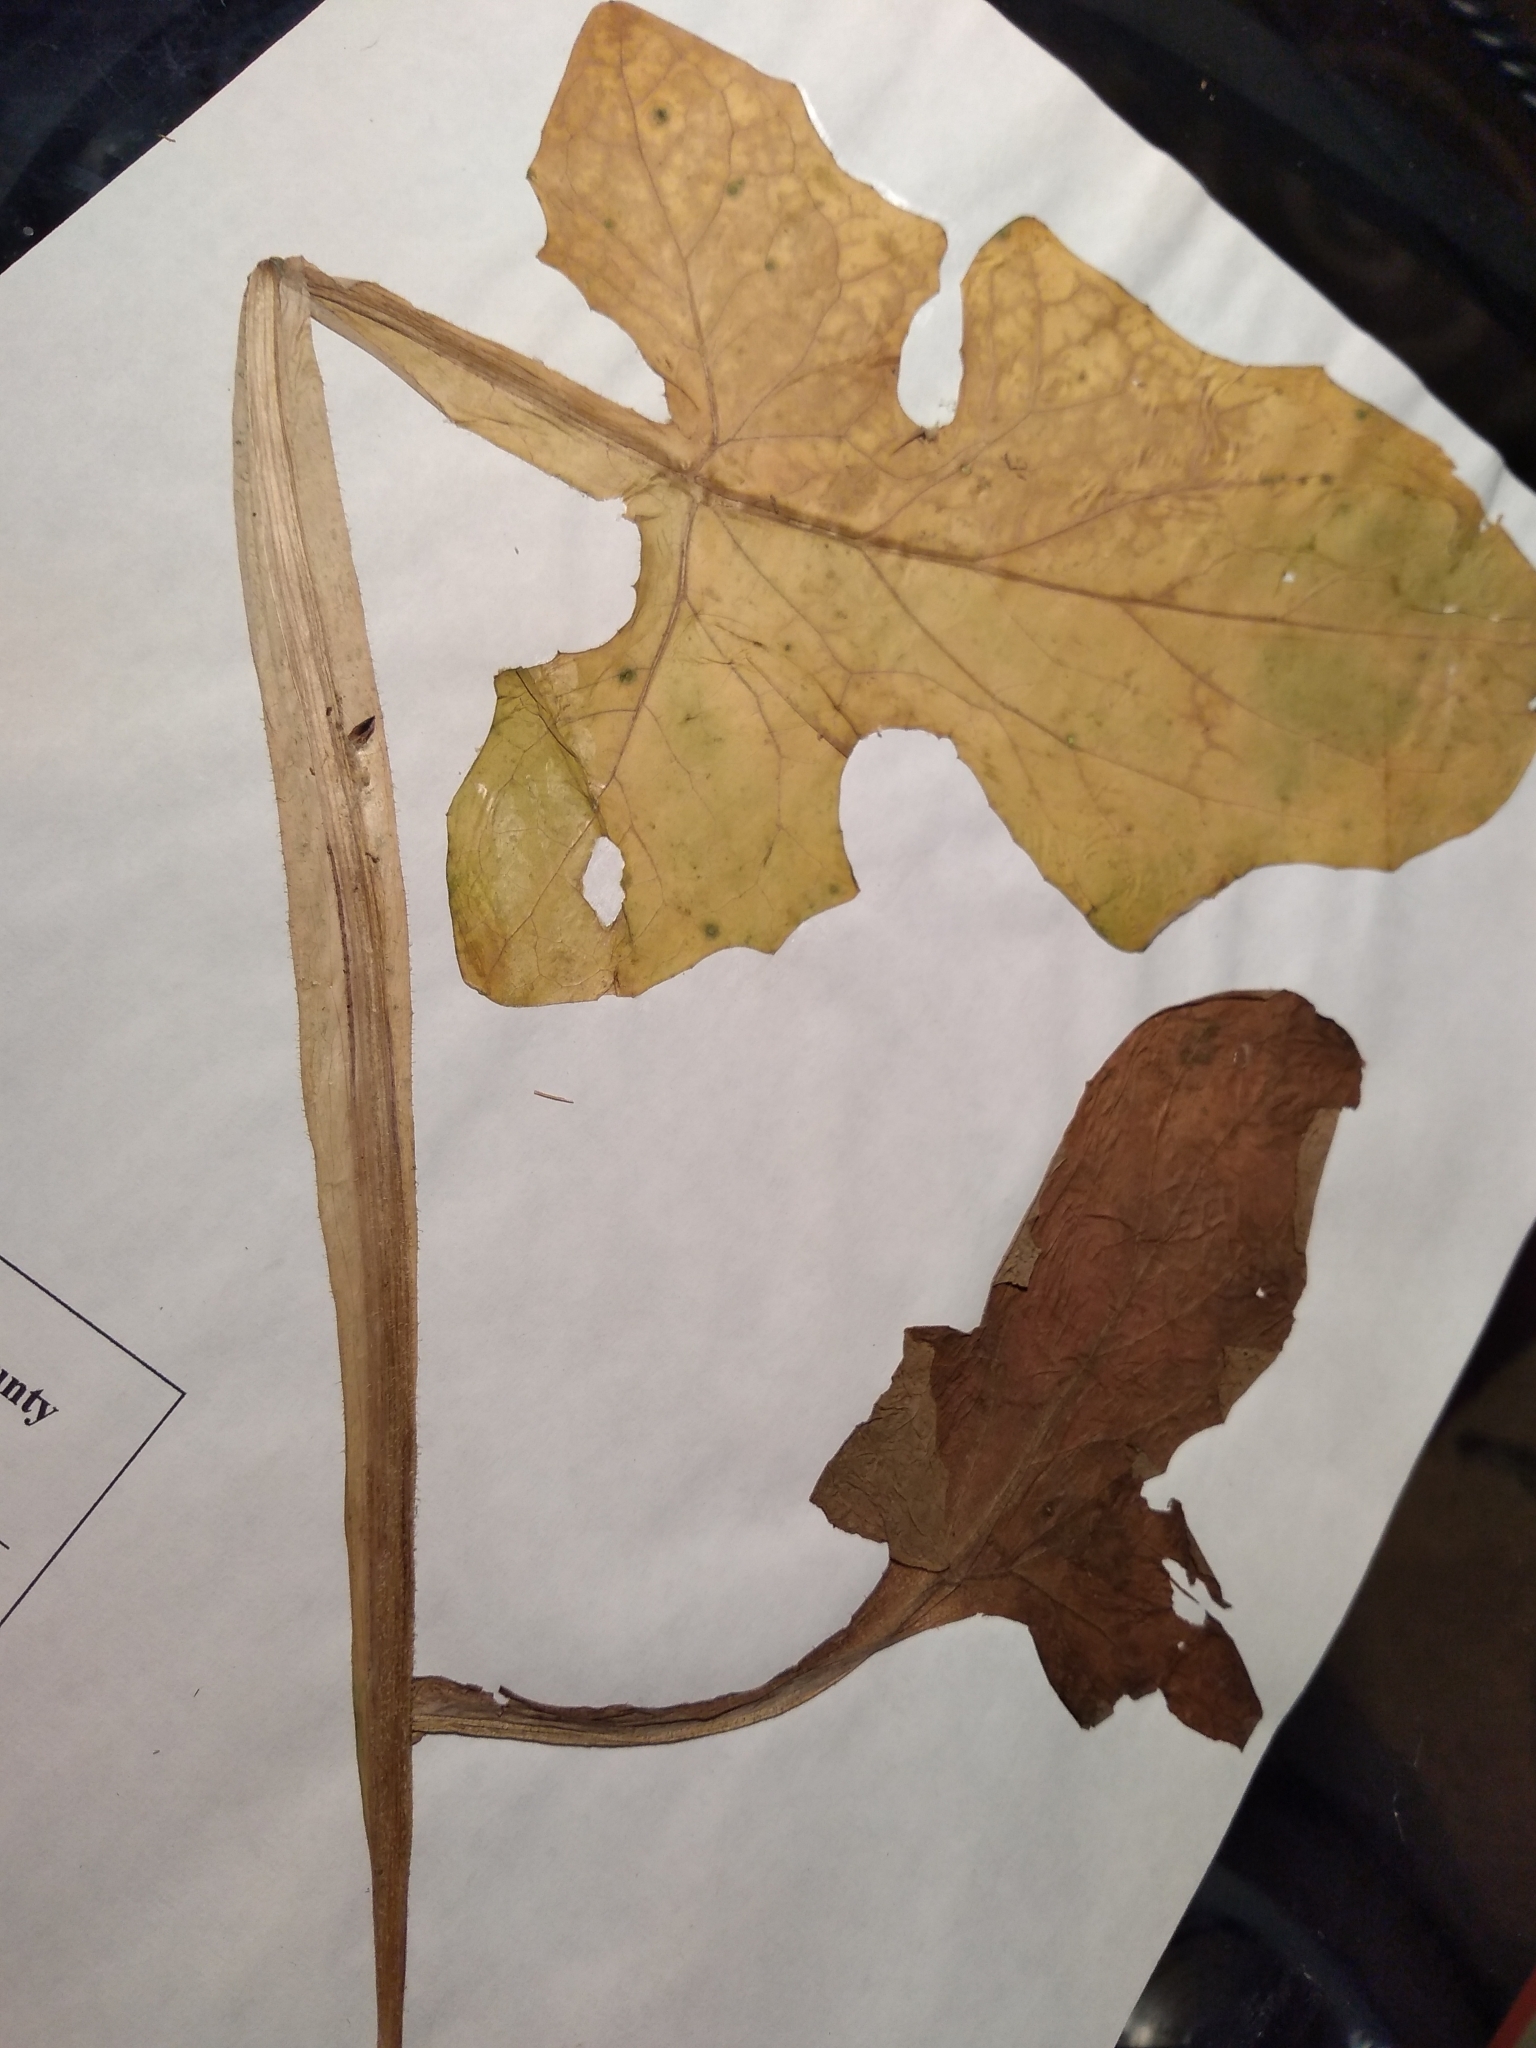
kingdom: Plantae
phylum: Tracheophyta
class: Magnoliopsida
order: Asterales
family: Asteraceae
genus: Nabalus
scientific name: Nabalus crepidineus
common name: Nodding rattlesnakeroot
